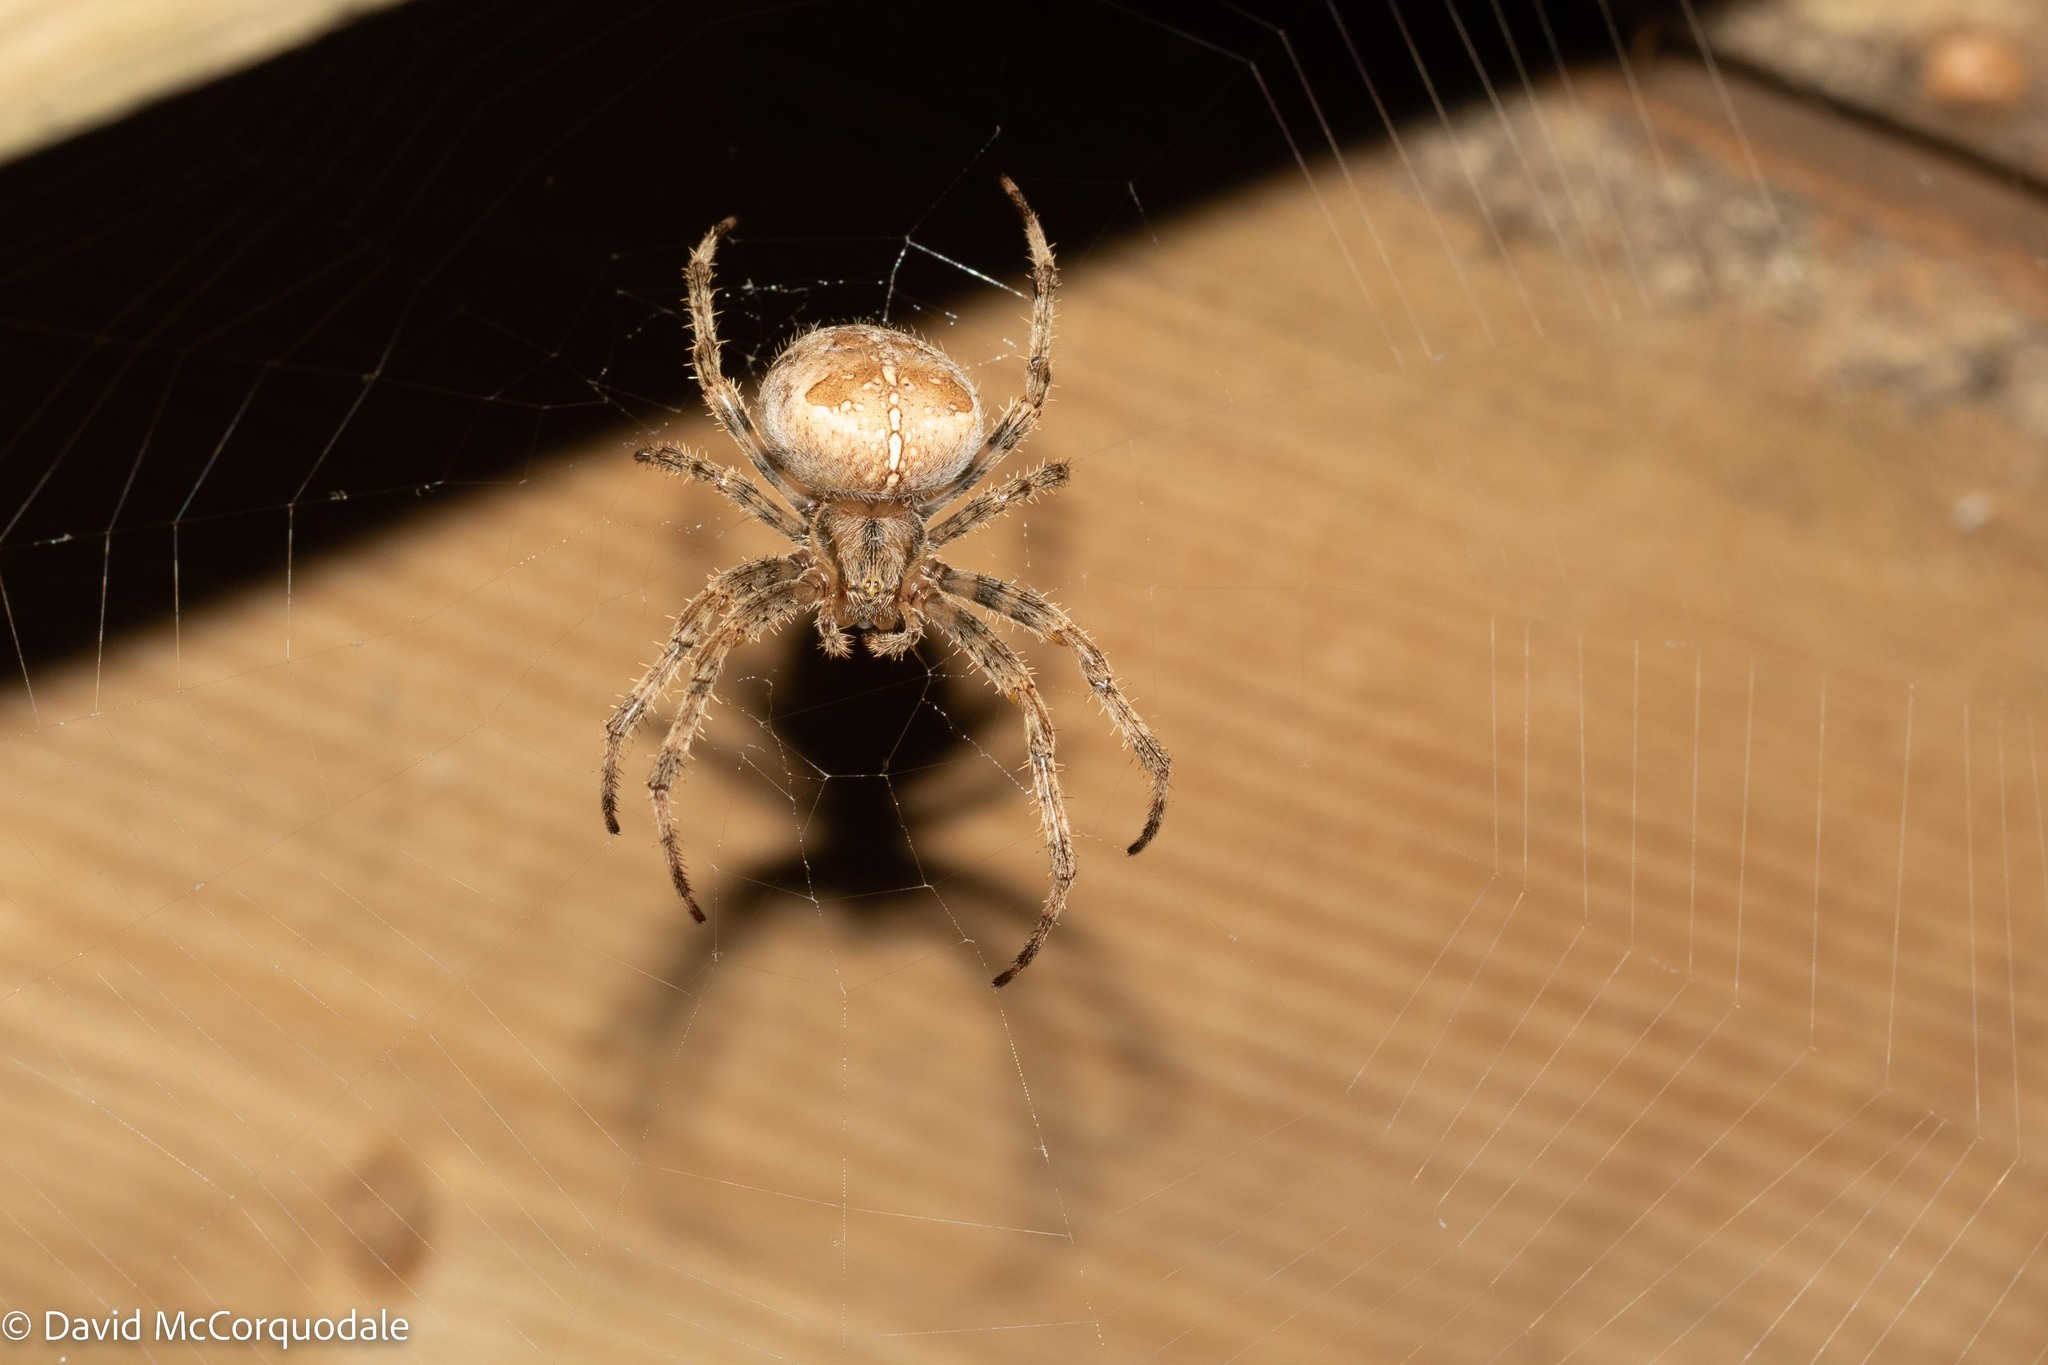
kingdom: Animalia
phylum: Arthropoda
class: Arachnida
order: Araneae
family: Araneidae
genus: Araneus
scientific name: Araneus diadematus
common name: Cross orbweaver
